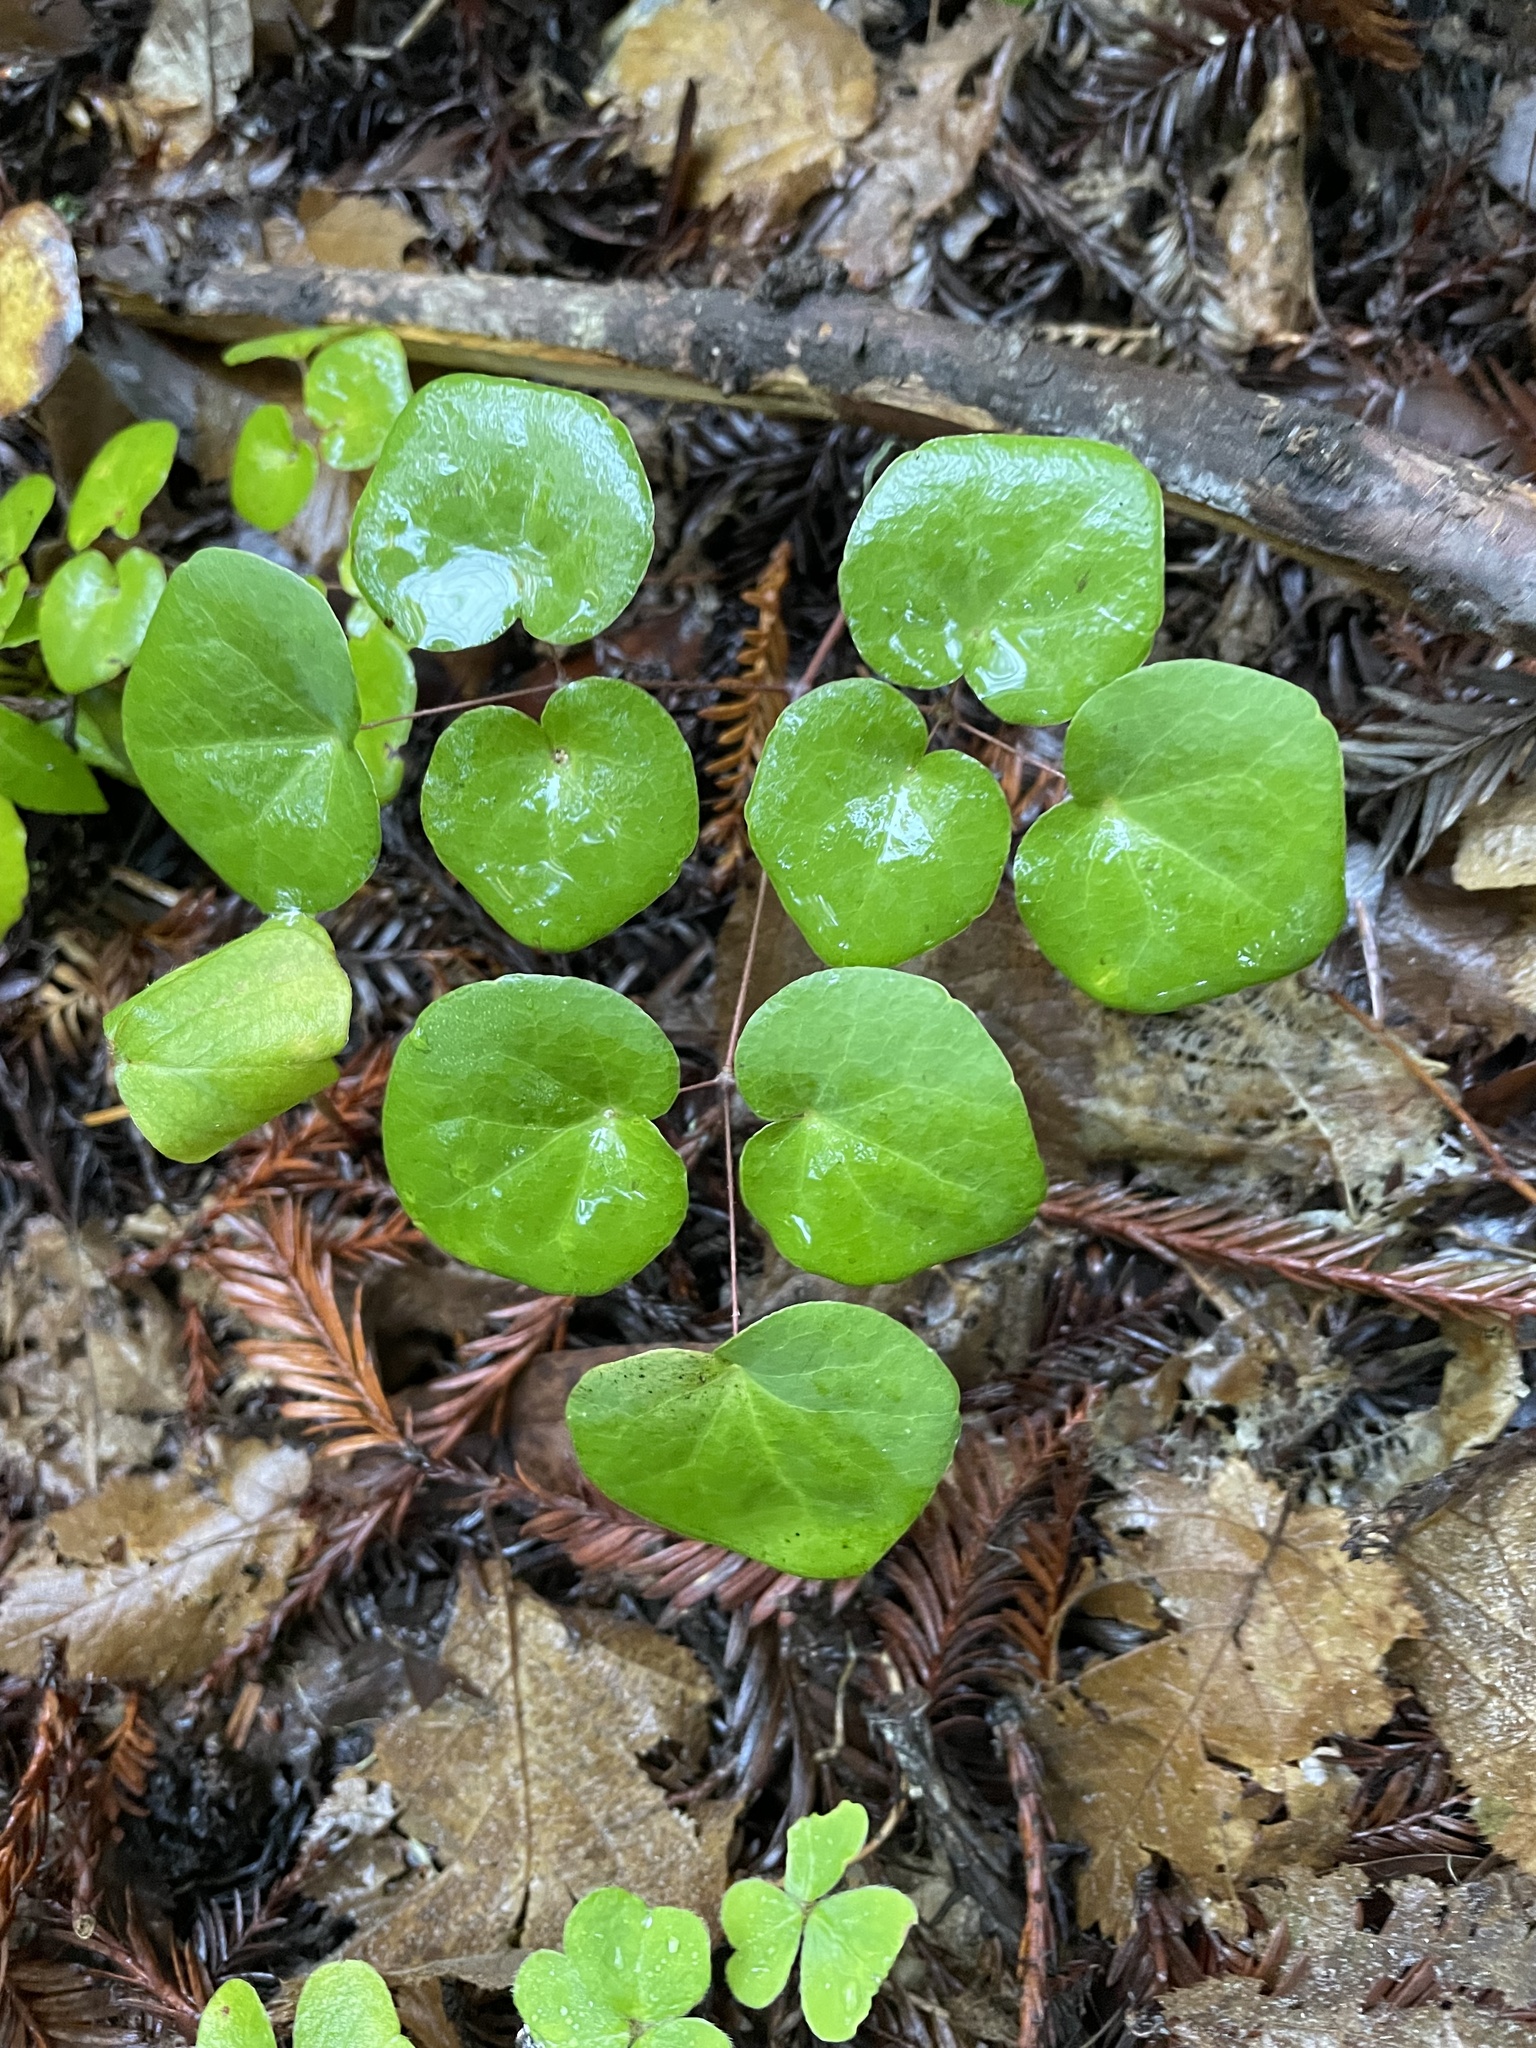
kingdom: Plantae
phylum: Tracheophyta
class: Magnoliopsida
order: Ranunculales
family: Berberidaceae
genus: Vancouveria
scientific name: Vancouveria planipetala
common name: Redwood-ivy
